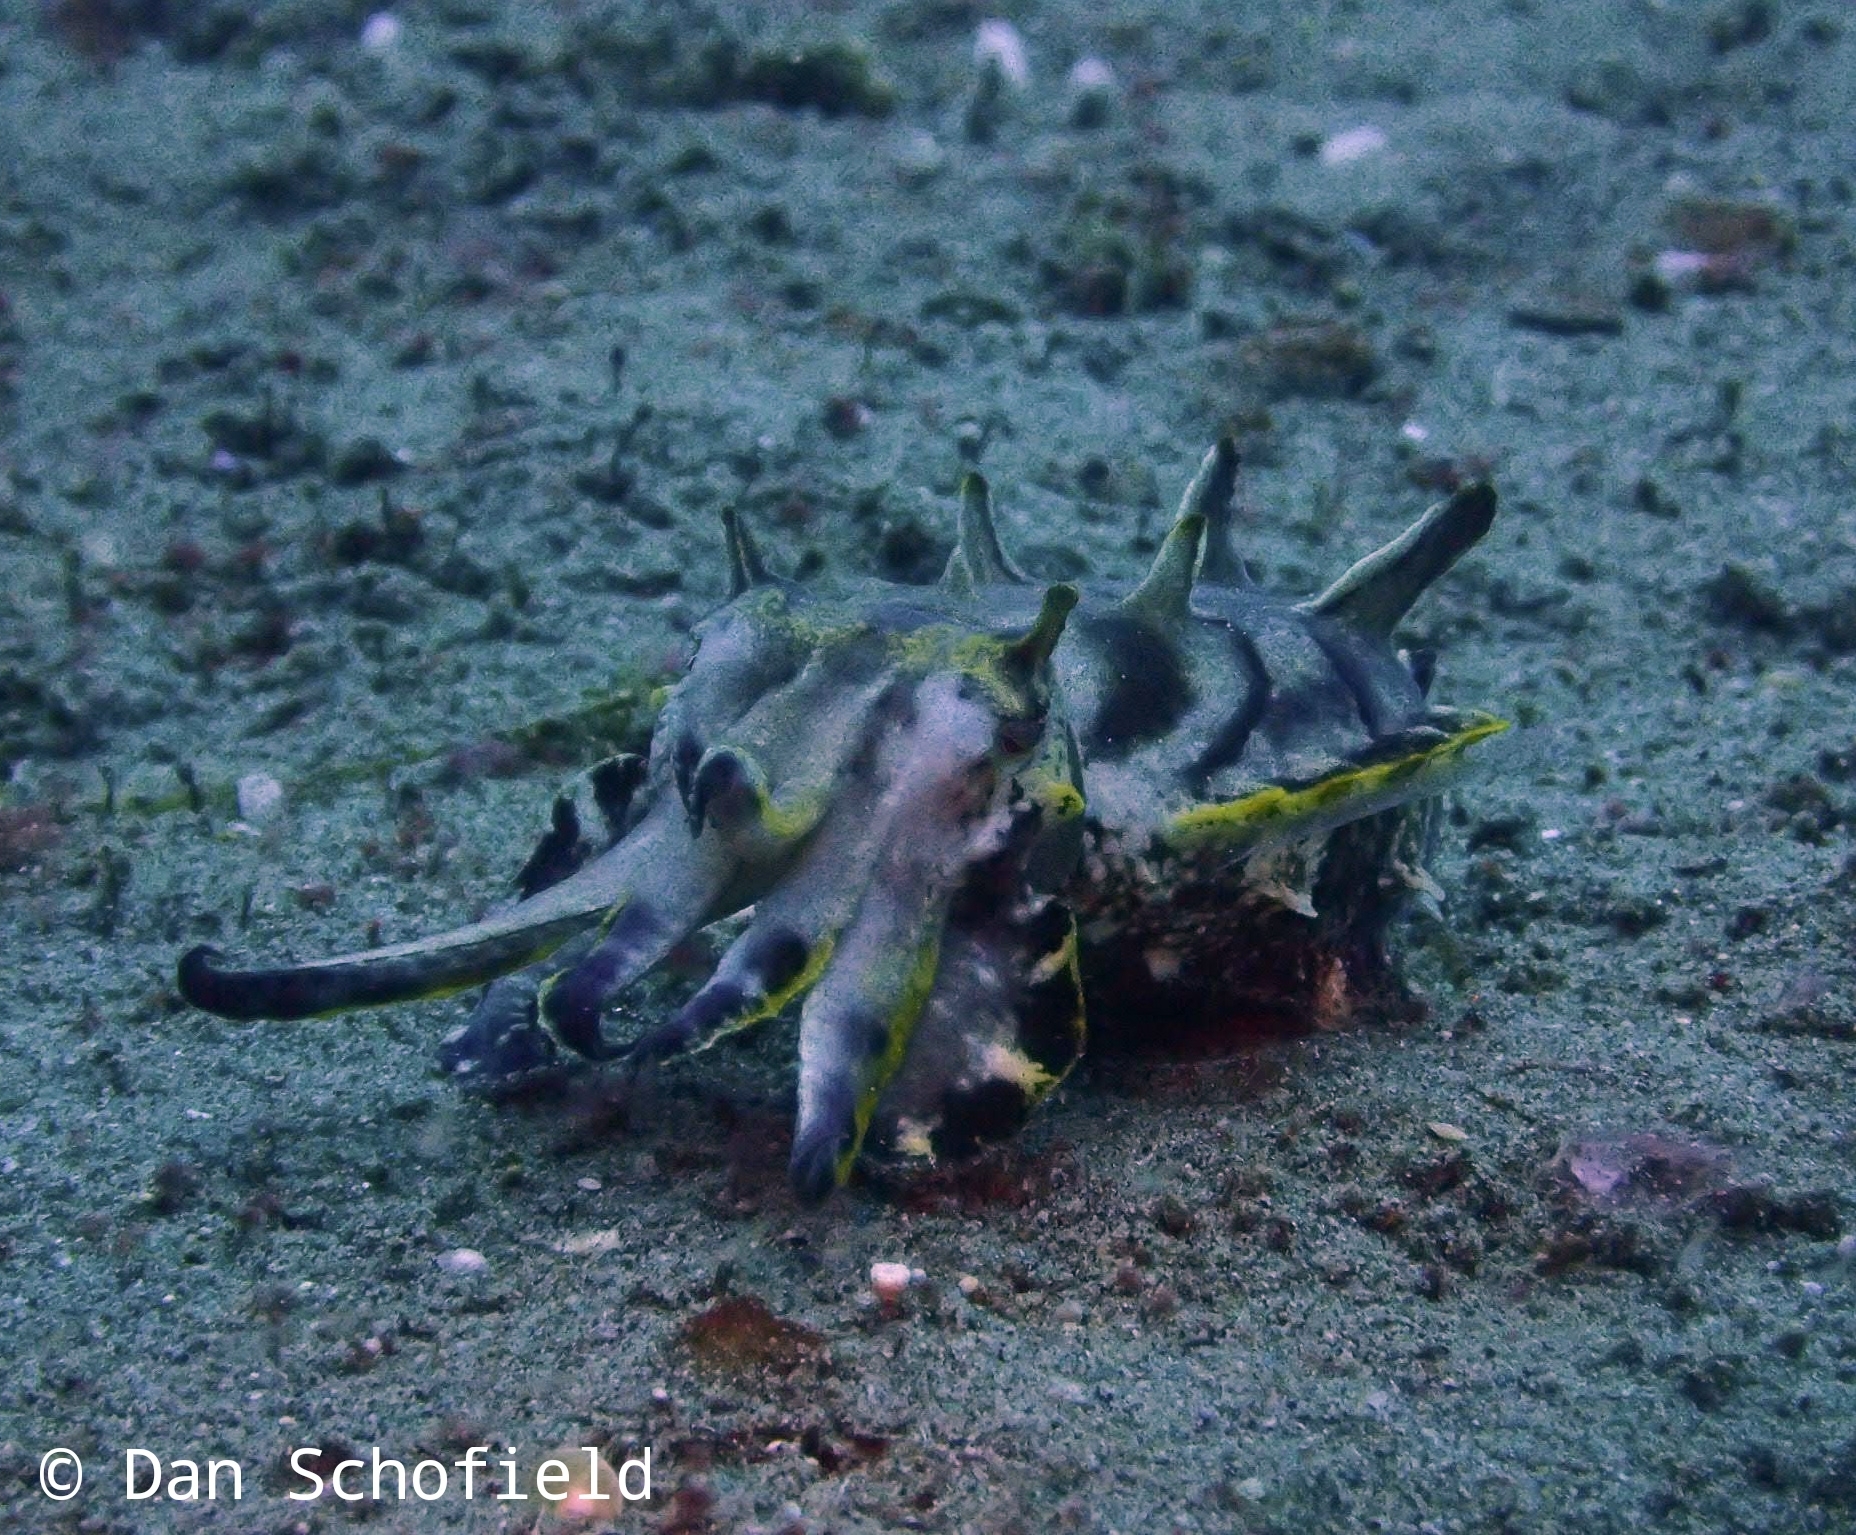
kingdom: Animalia
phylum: Mollusca
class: Cephalopoda
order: Sepiida
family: Sepiidae
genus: Ascarosepion
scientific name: Ascarosepion pfefferi
